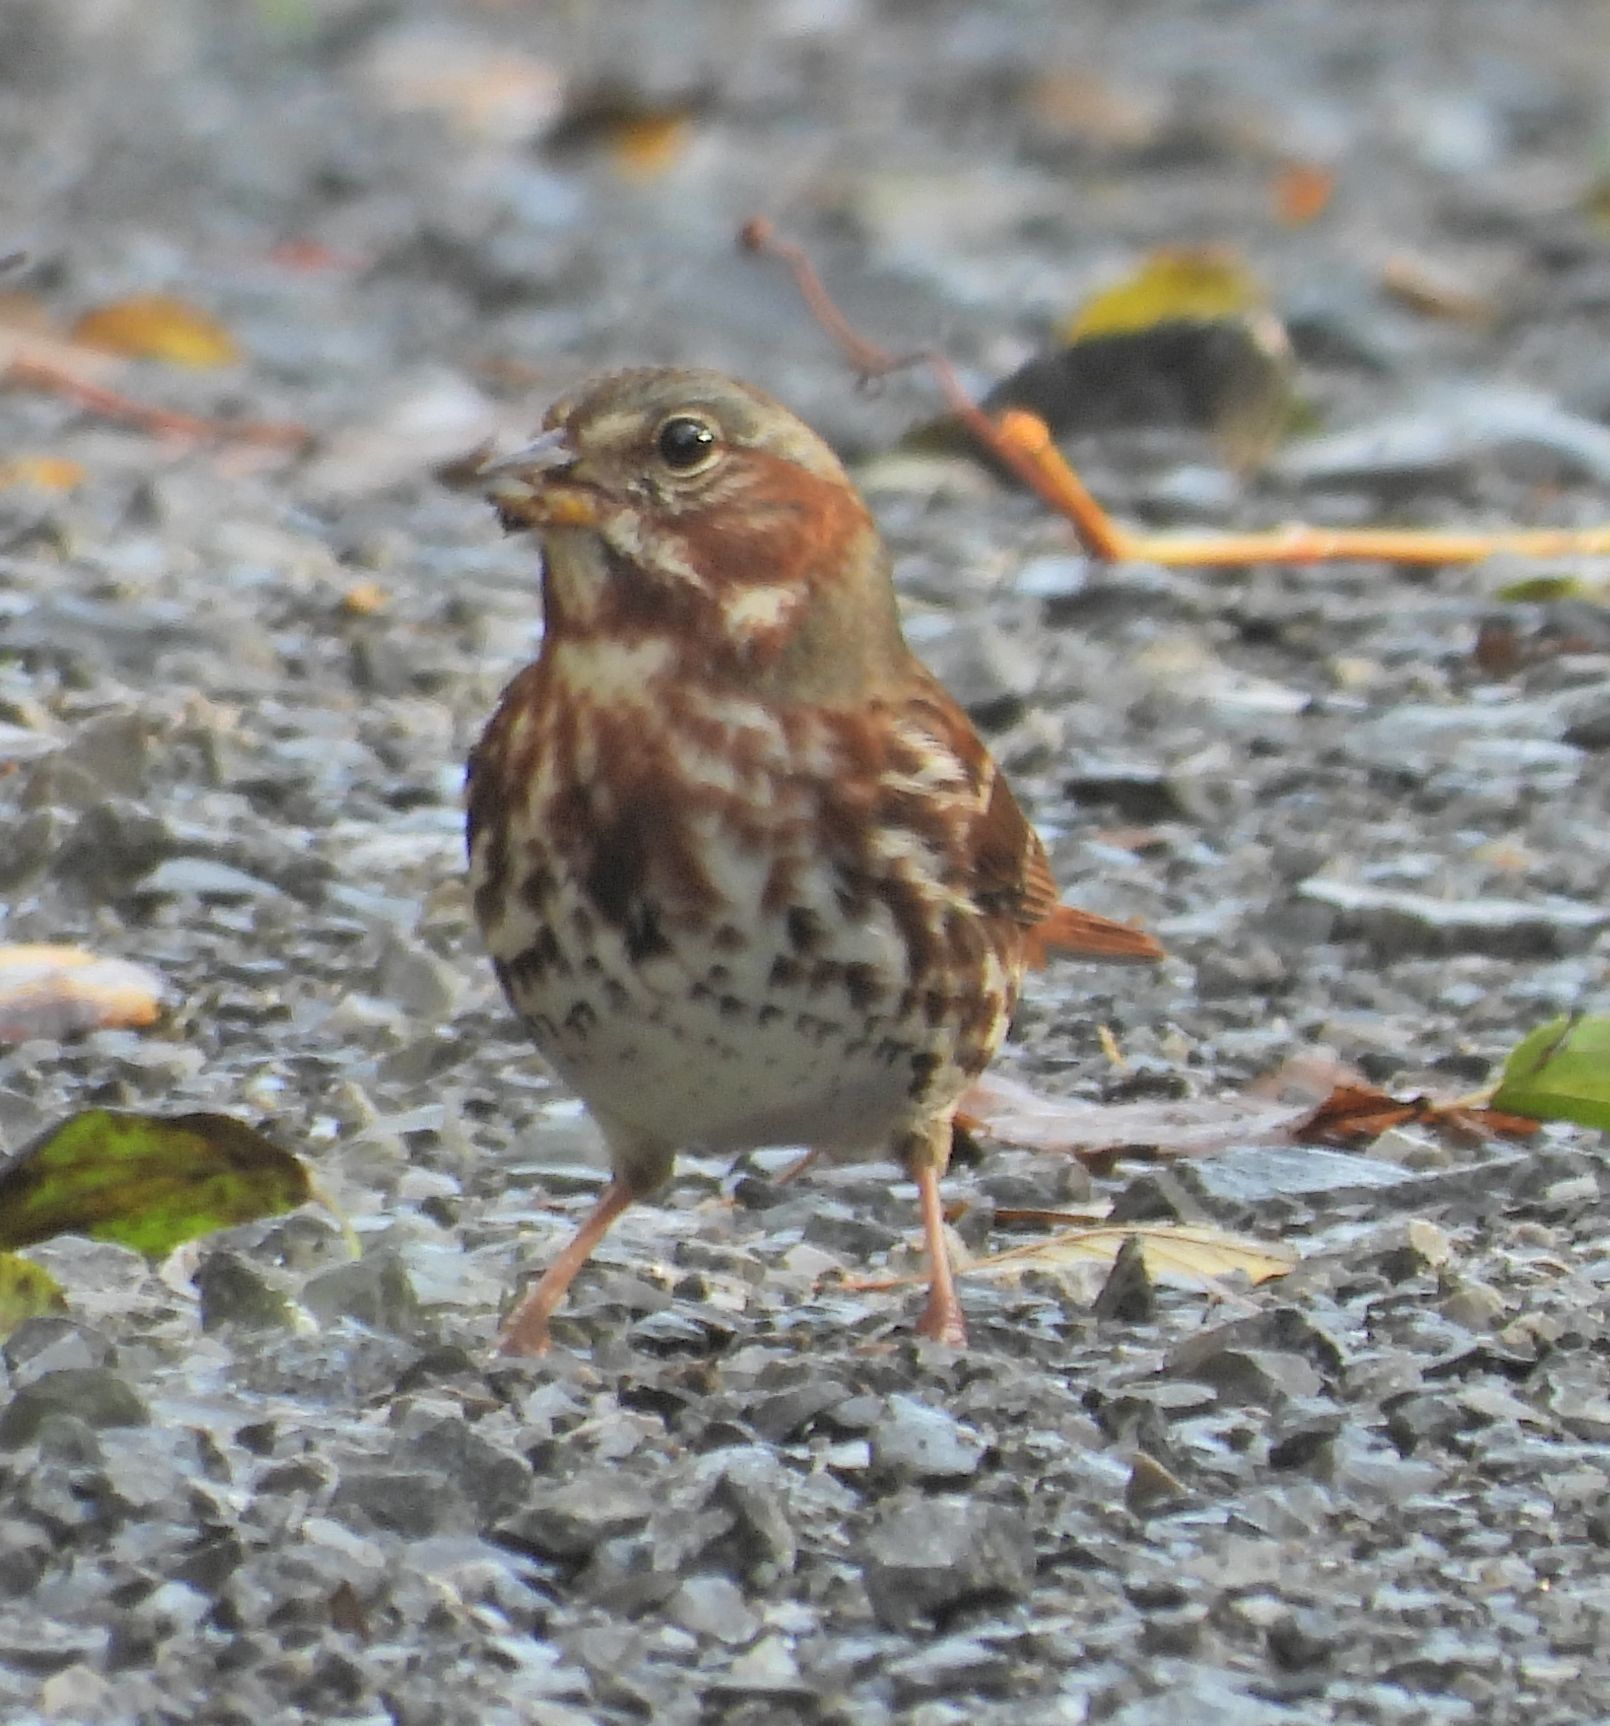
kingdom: Animalia
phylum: Chordata
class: Aves
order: Passeriformes
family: Passerellidae
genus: Passerella
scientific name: Passerella iliaca
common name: Fox sparrow
